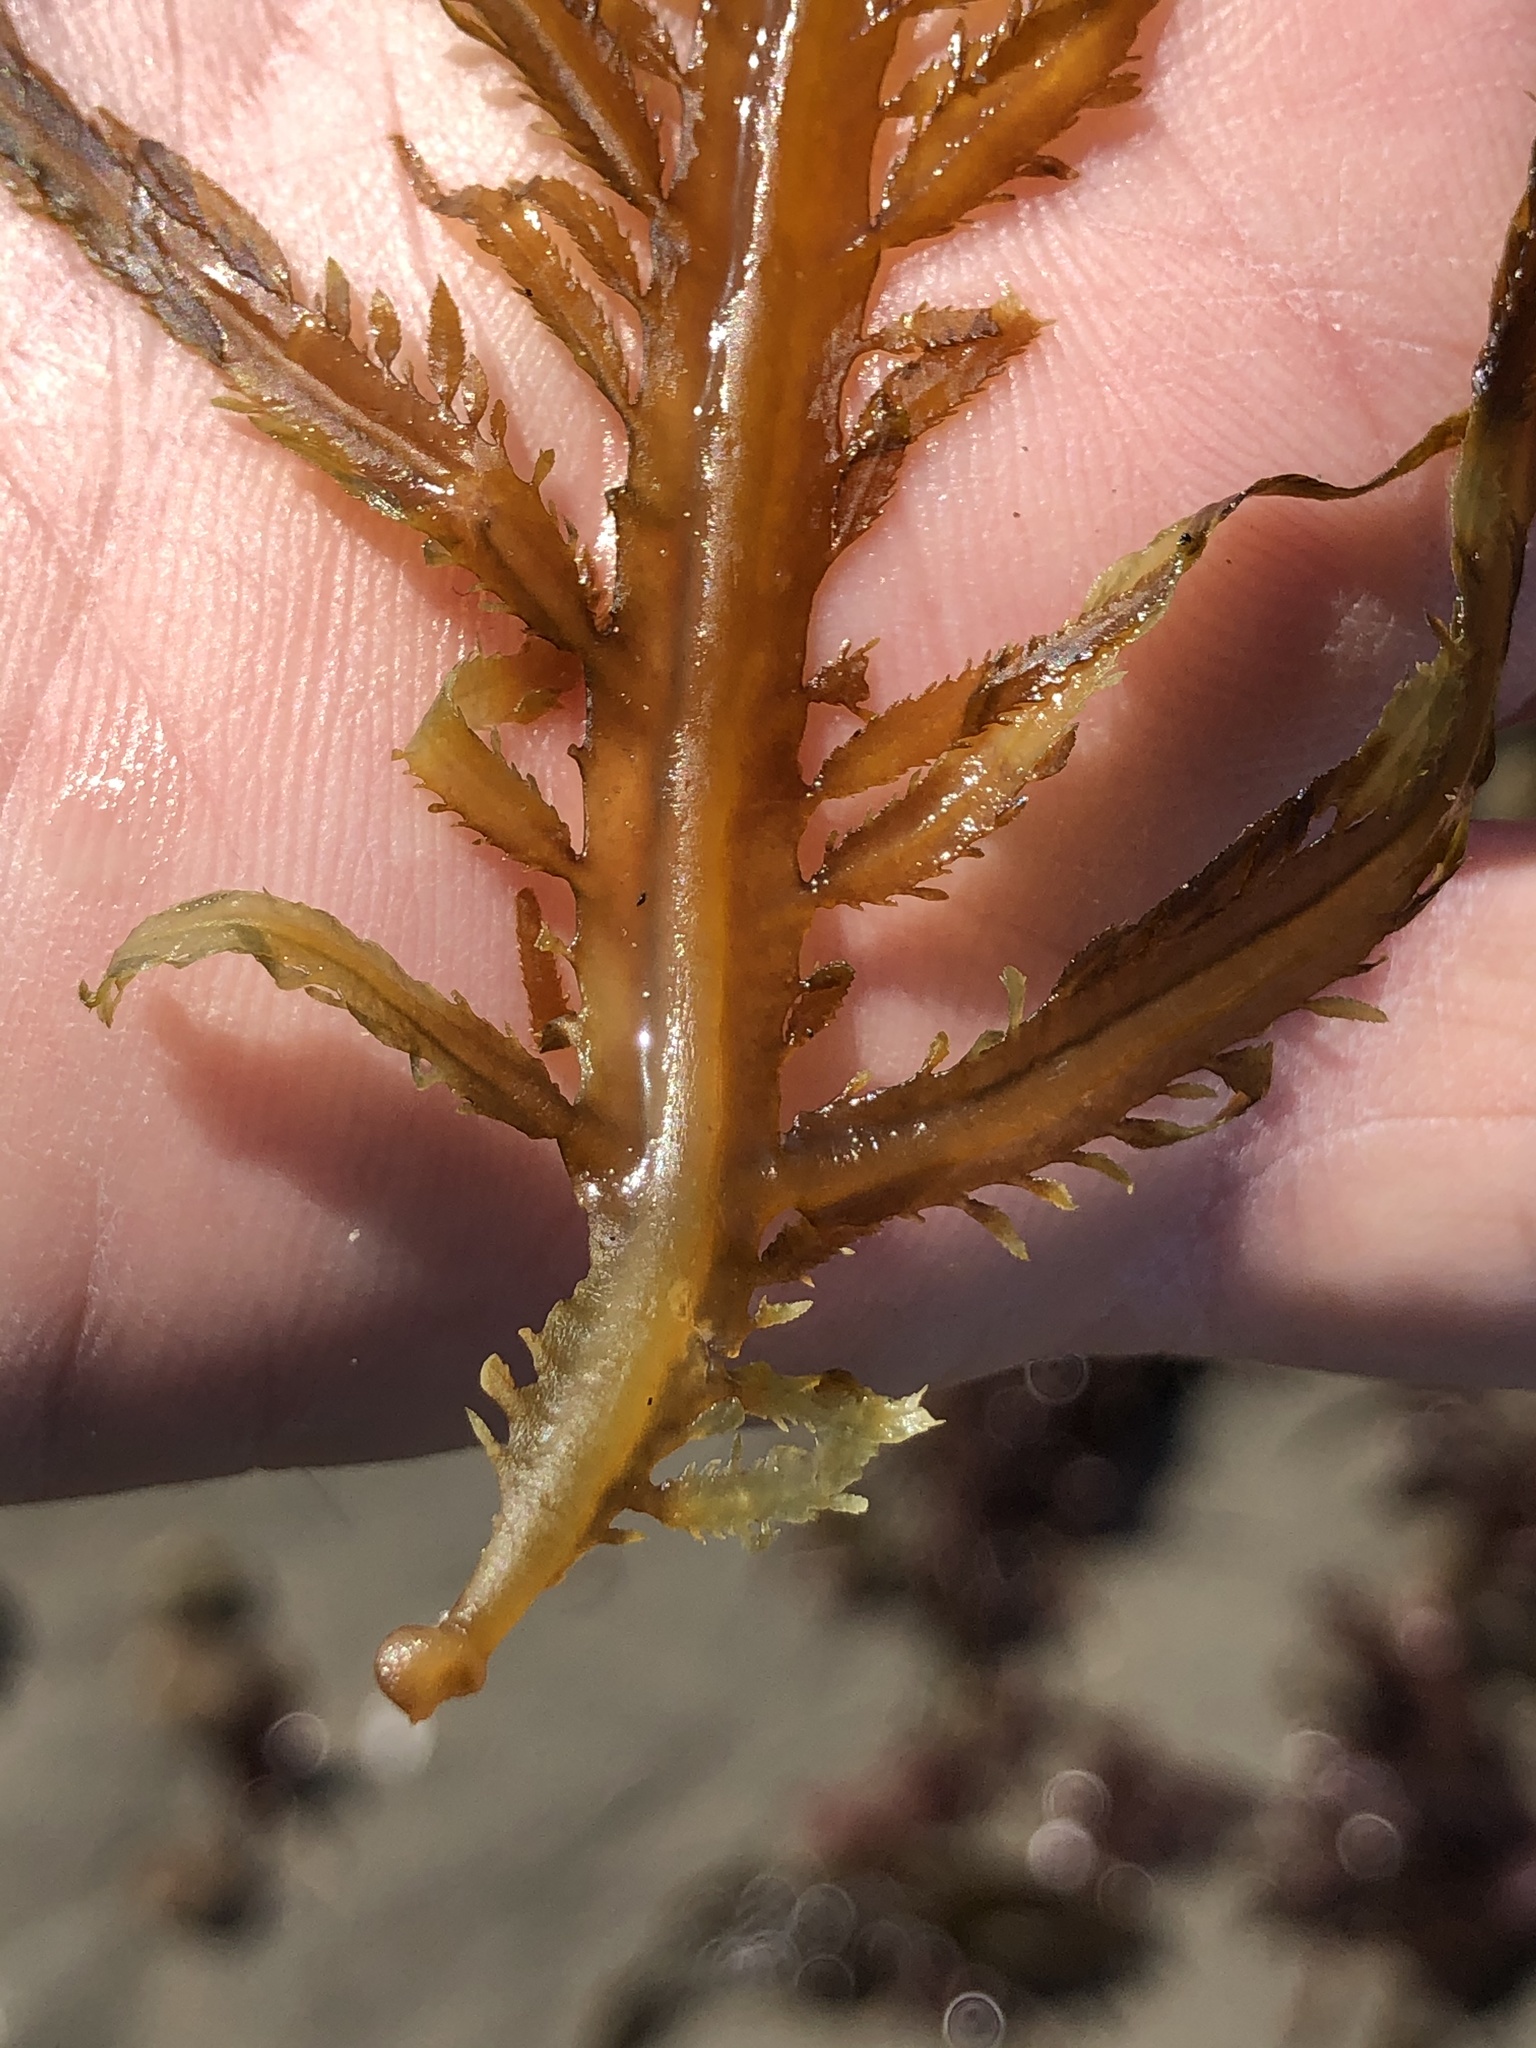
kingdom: Chromista
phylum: Ochrophyta
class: Phaeophyceae
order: Desmarestiales
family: Desmarestiaceae
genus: Desmarestia
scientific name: Desmarestia ligulata
